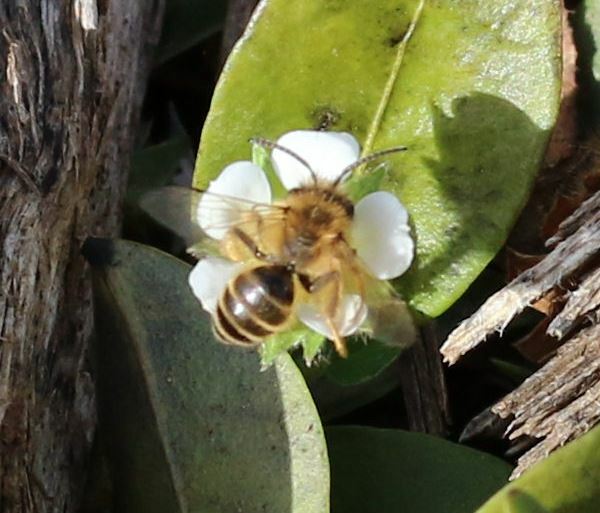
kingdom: Animalia
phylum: Arthropoda
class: Insecta
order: Hymenoptera
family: Andrenidae
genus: Andrena
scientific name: Andrena flavipes
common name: Yellow-legged mining bee
